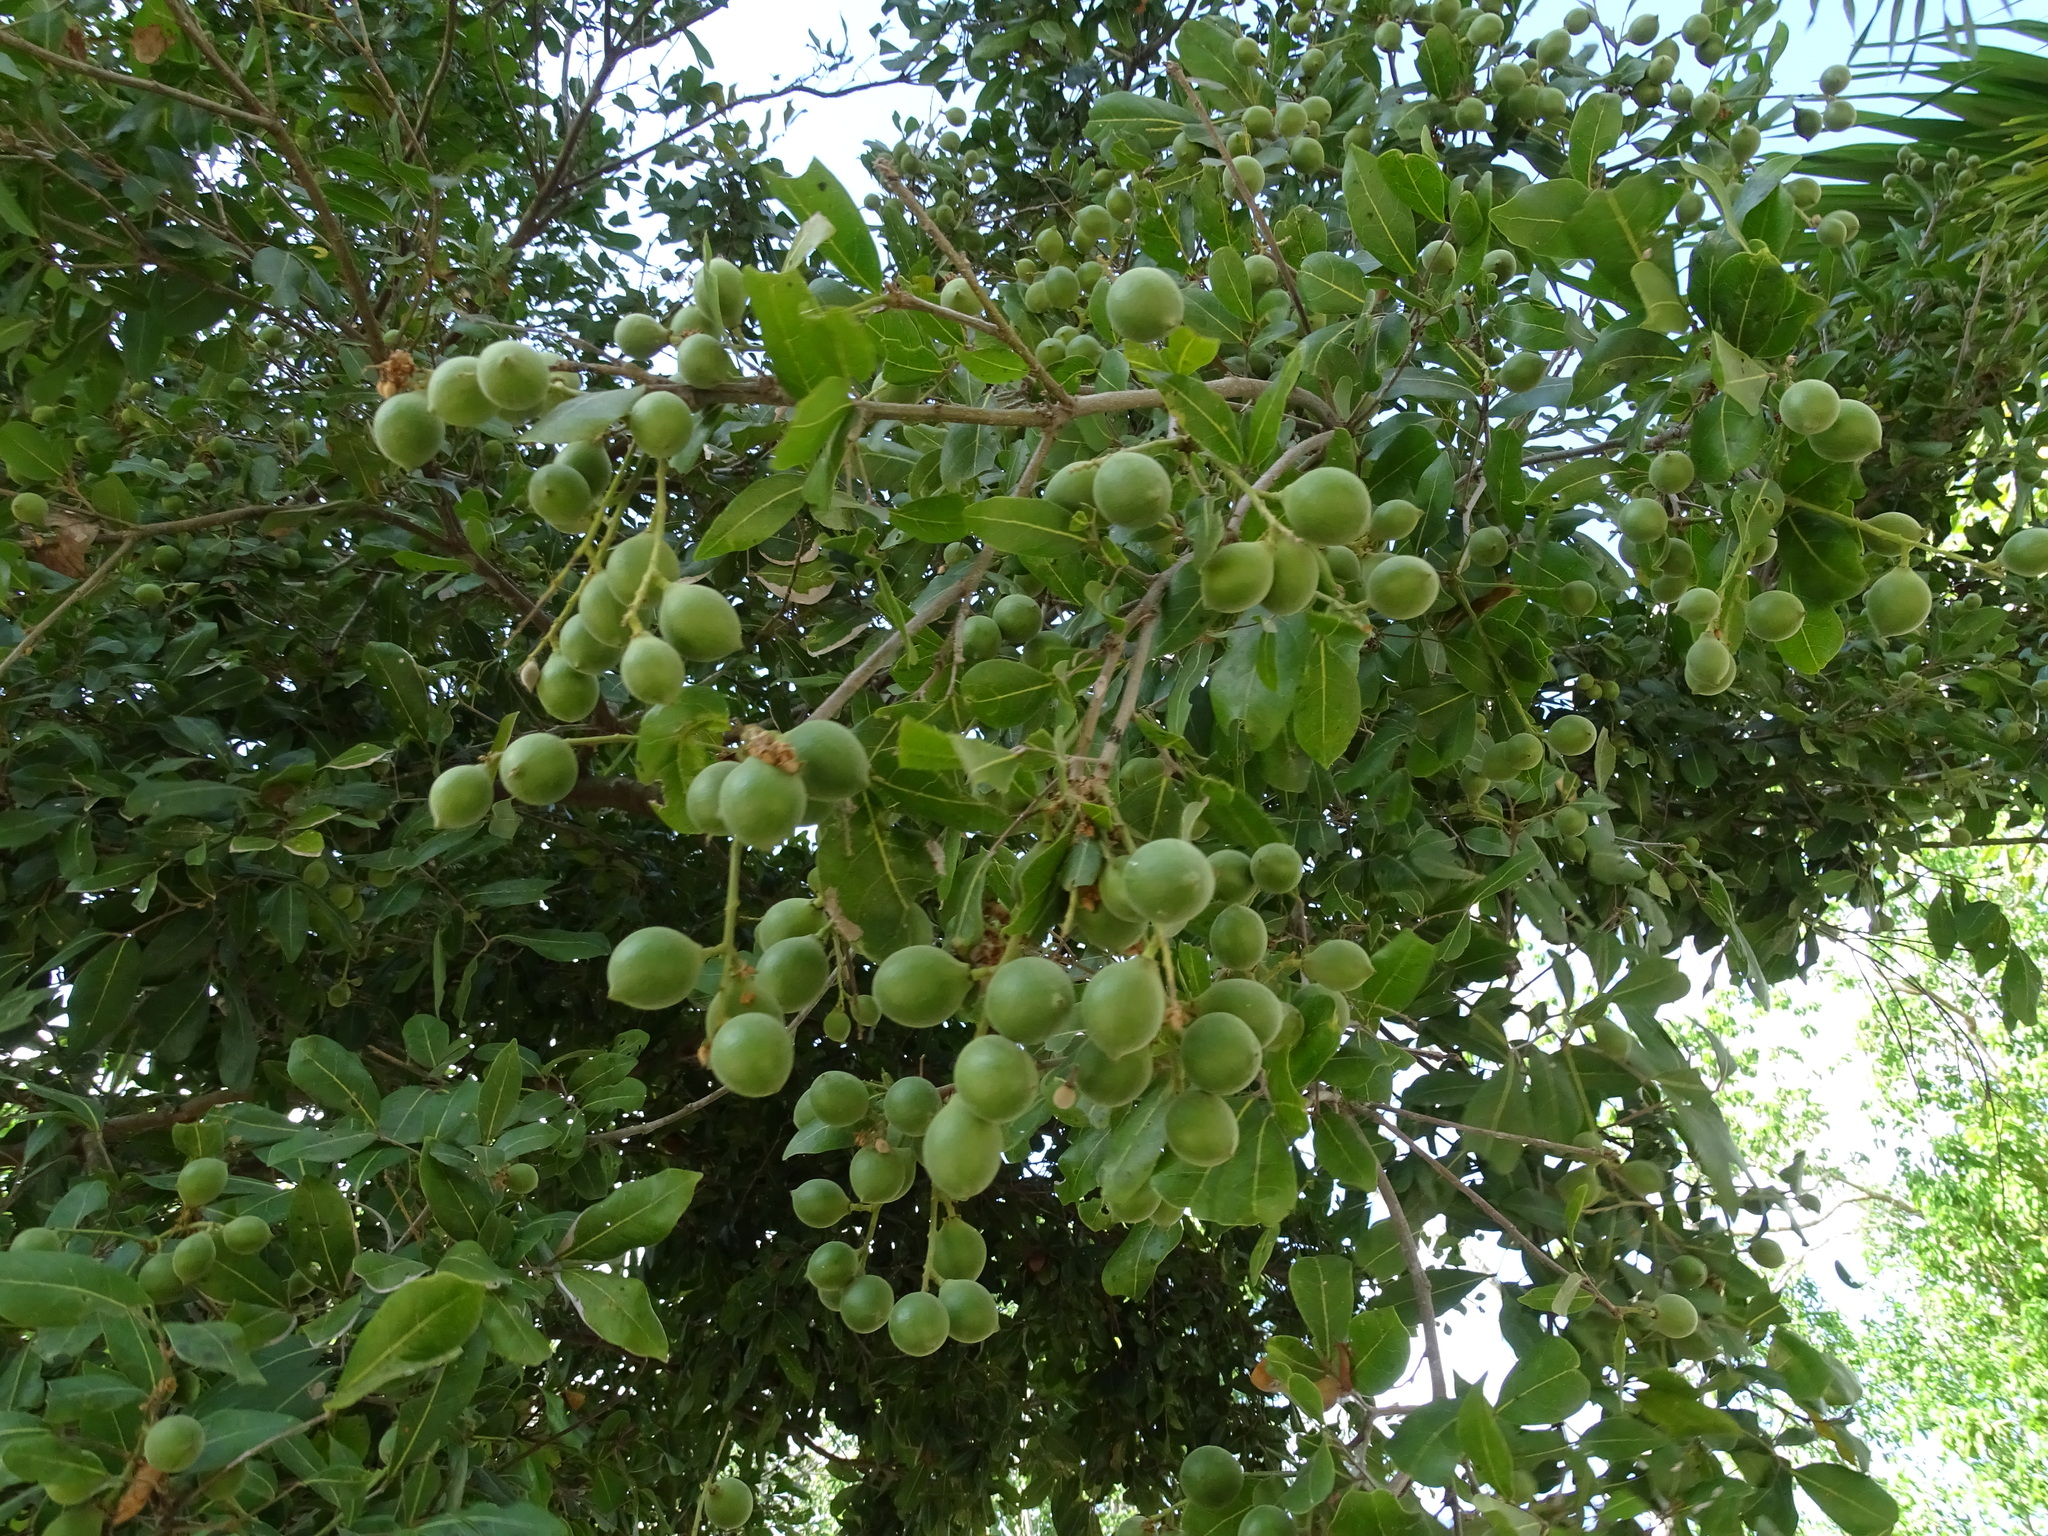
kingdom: Plantae
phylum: Tracheophyta
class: Magnoliopsida
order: Sapindales
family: Sapindaceae
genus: Melicoccus
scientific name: Melicoccus oliviformis
